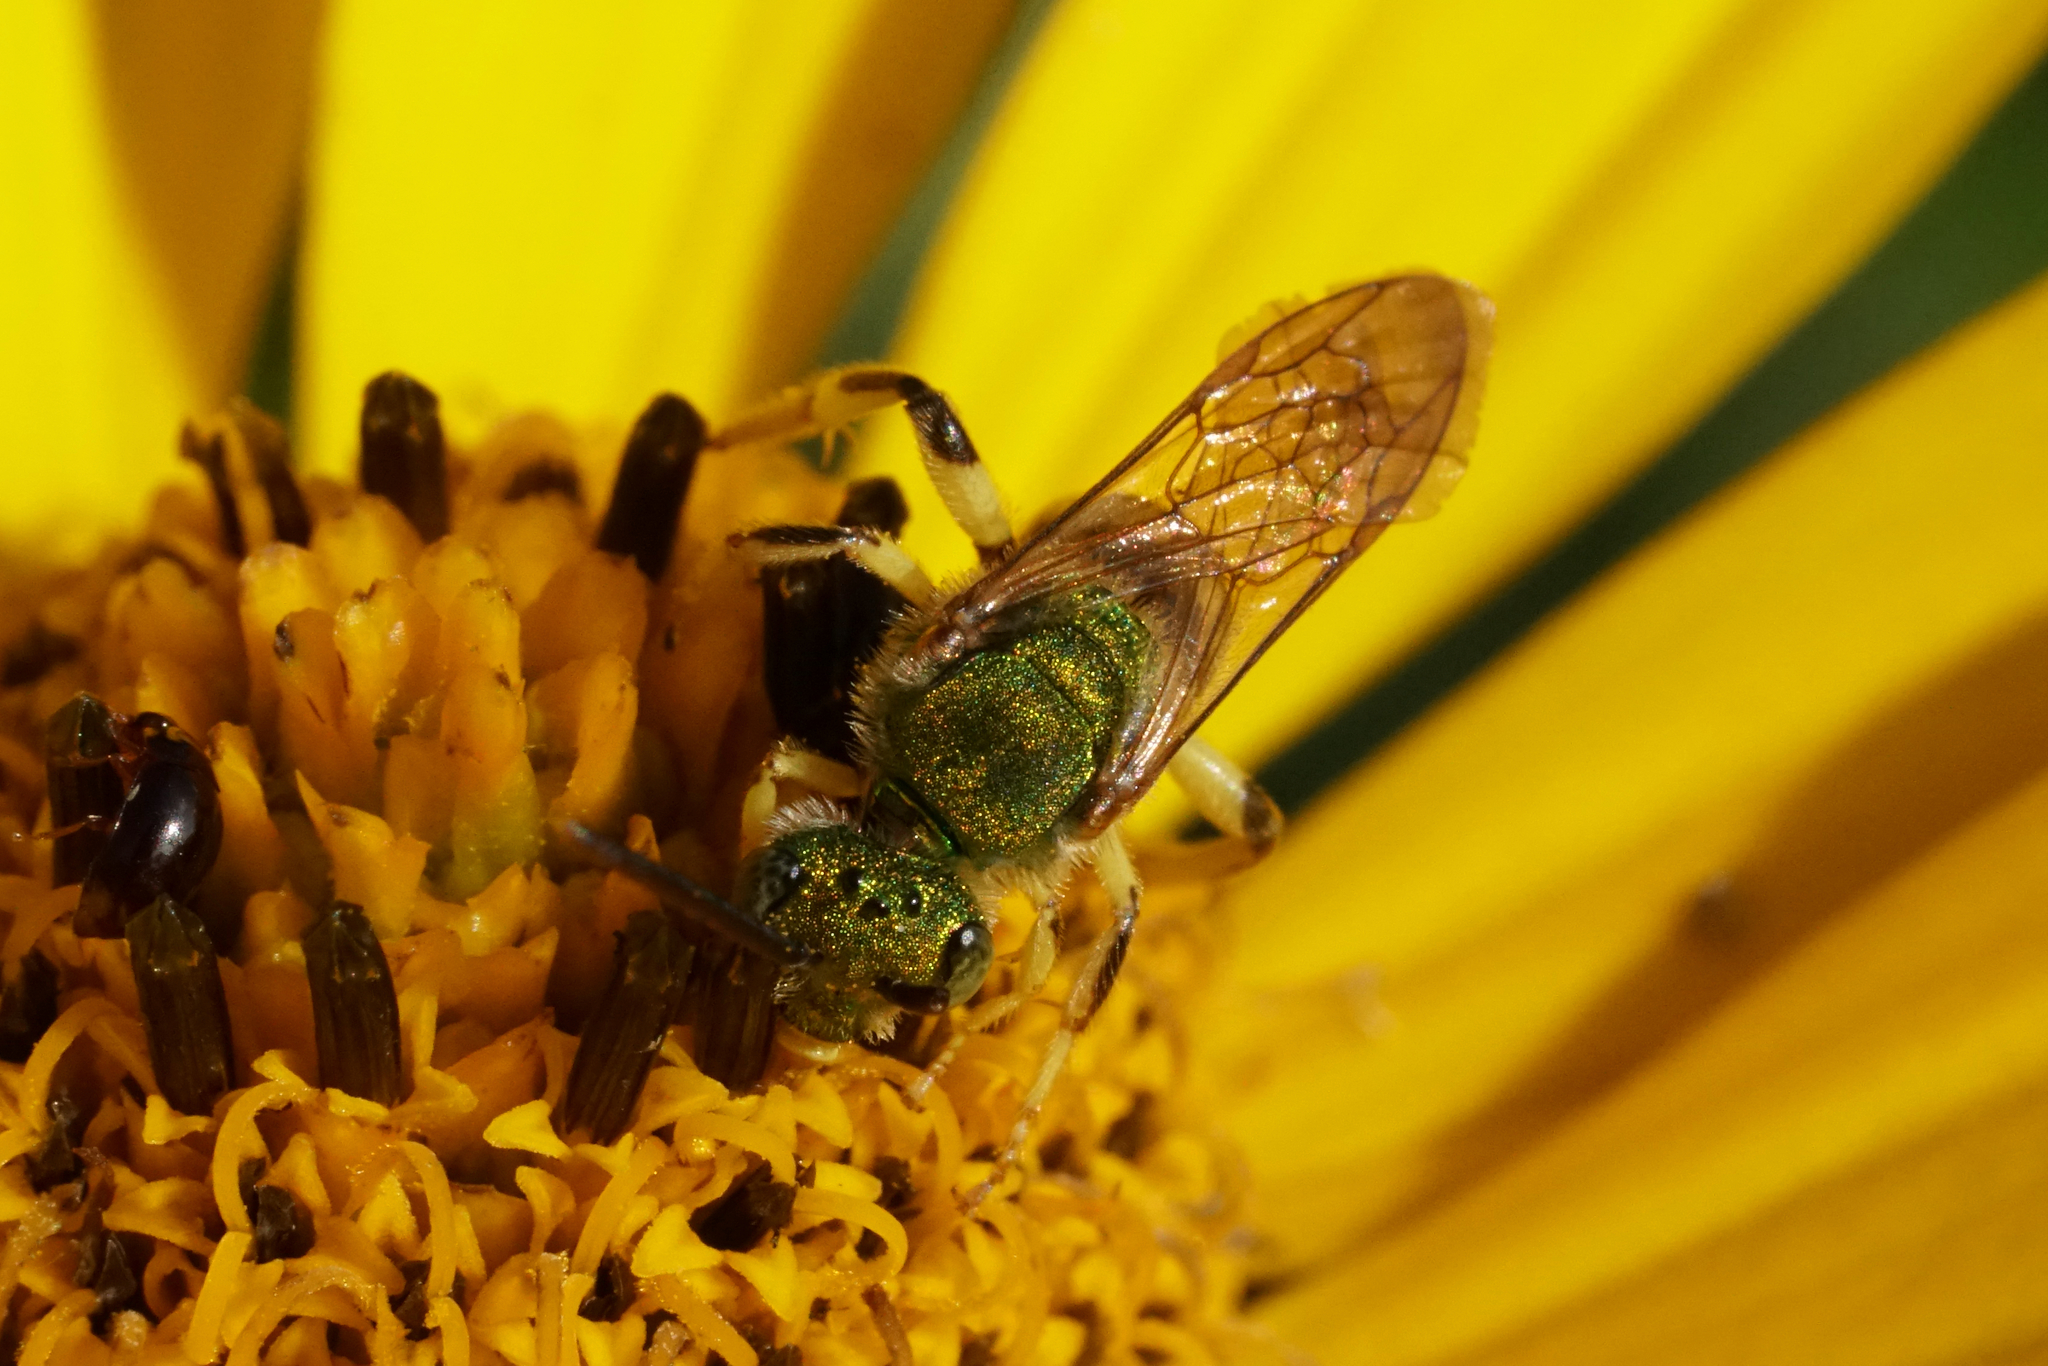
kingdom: Animalia
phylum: Arthropoda
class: Insecta
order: Hymenoptera
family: Halictidae
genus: Agapostemon
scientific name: Agapostemon sericeus
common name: Silky striped sweat bee
